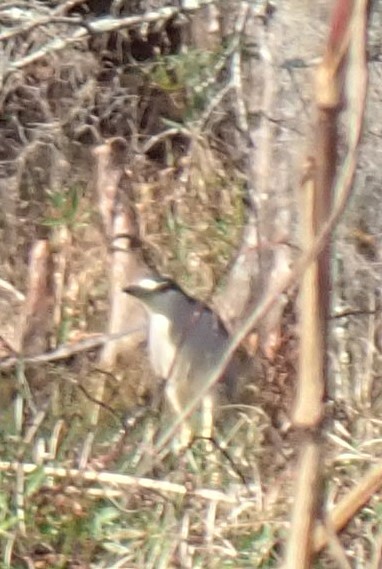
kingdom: Animalia
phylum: Chordata
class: Aves
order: Pelecaniformes
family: Ardeidae
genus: Nycticorax
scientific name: Nycticorax nycticorax
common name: Black-crowned night heron
